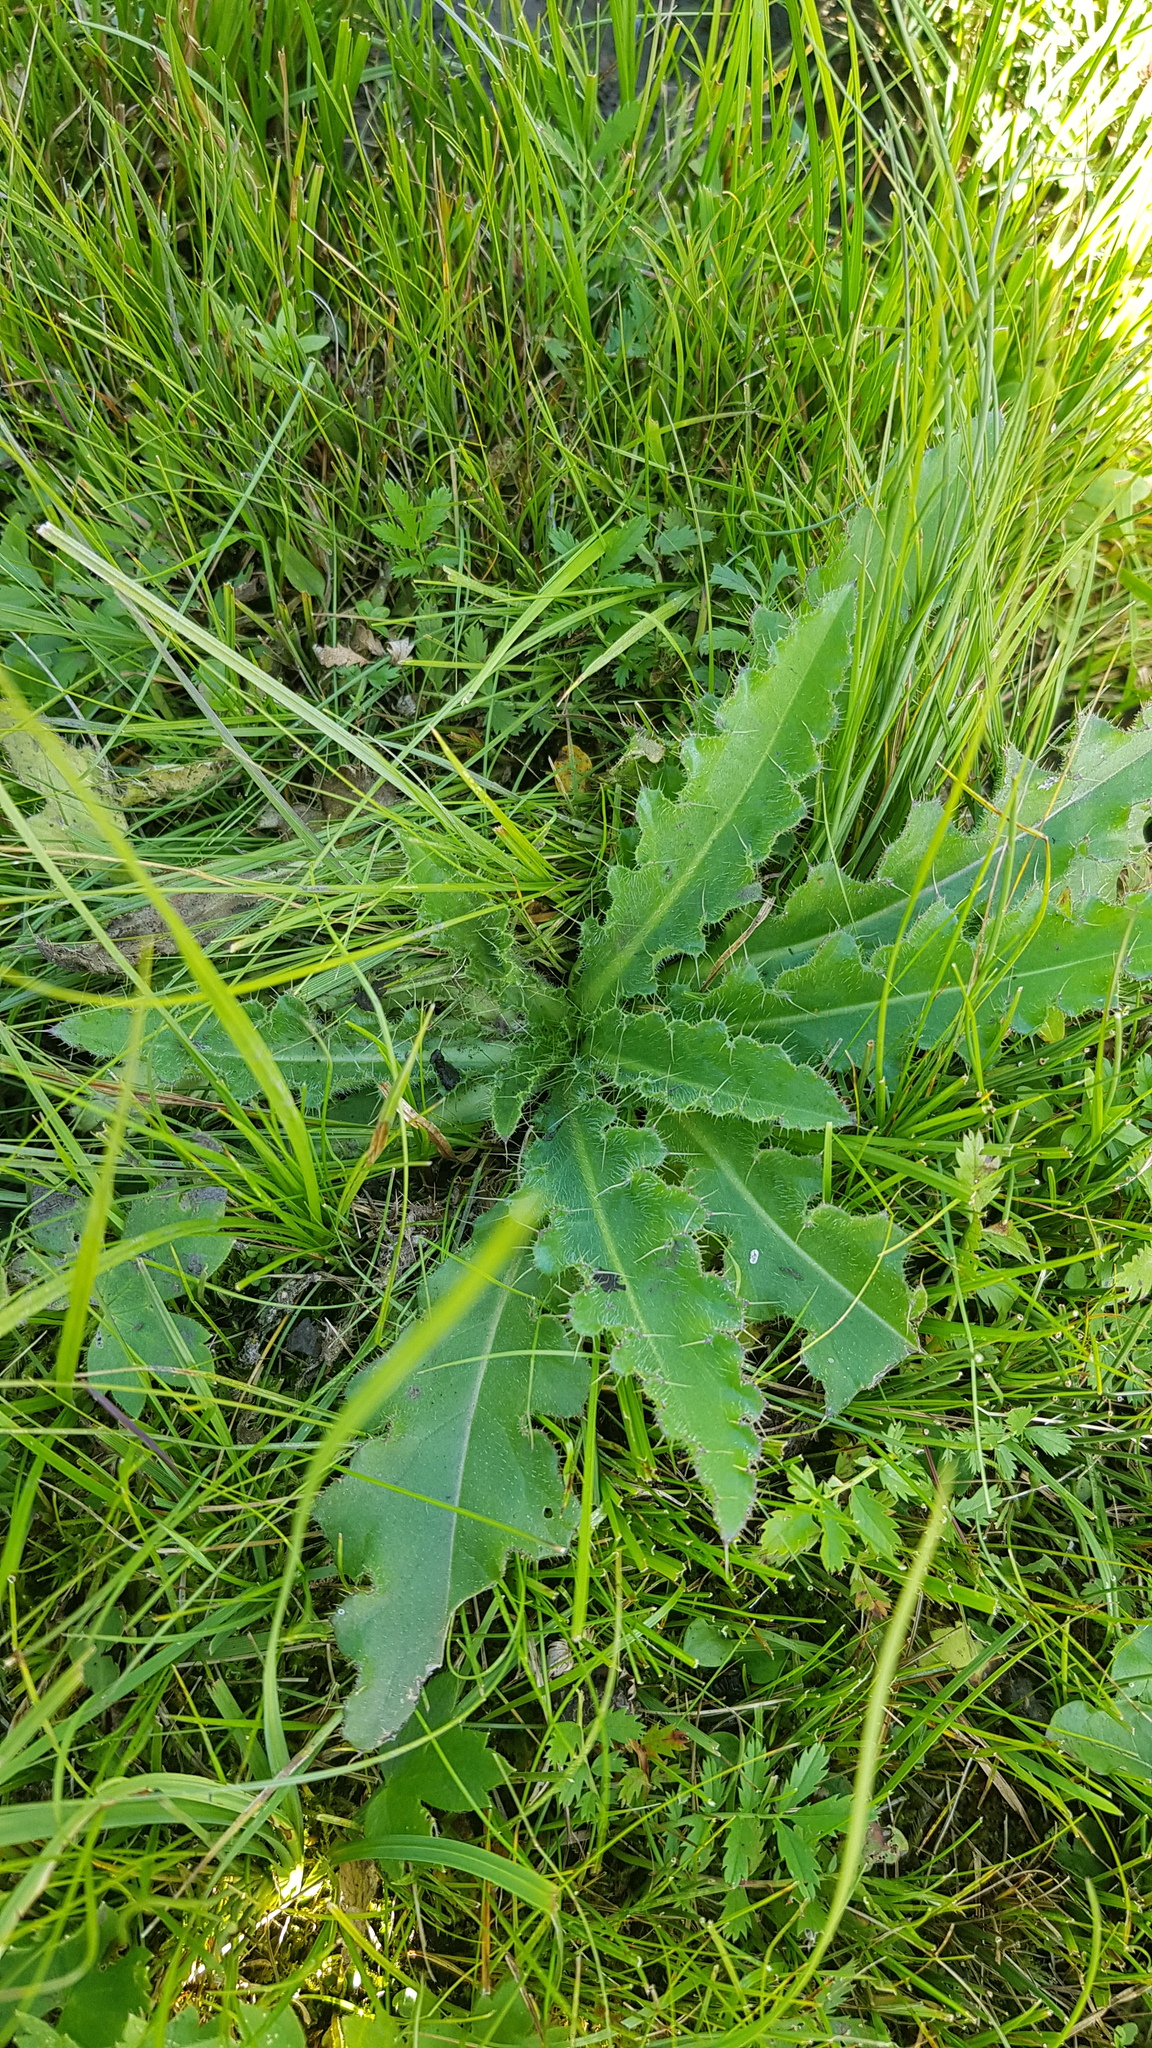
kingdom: Plantae
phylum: Tracheophyta
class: Magnoliopsida
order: Asterales
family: Asteraceae
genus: Cirsium
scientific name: Cirsium esculentum
